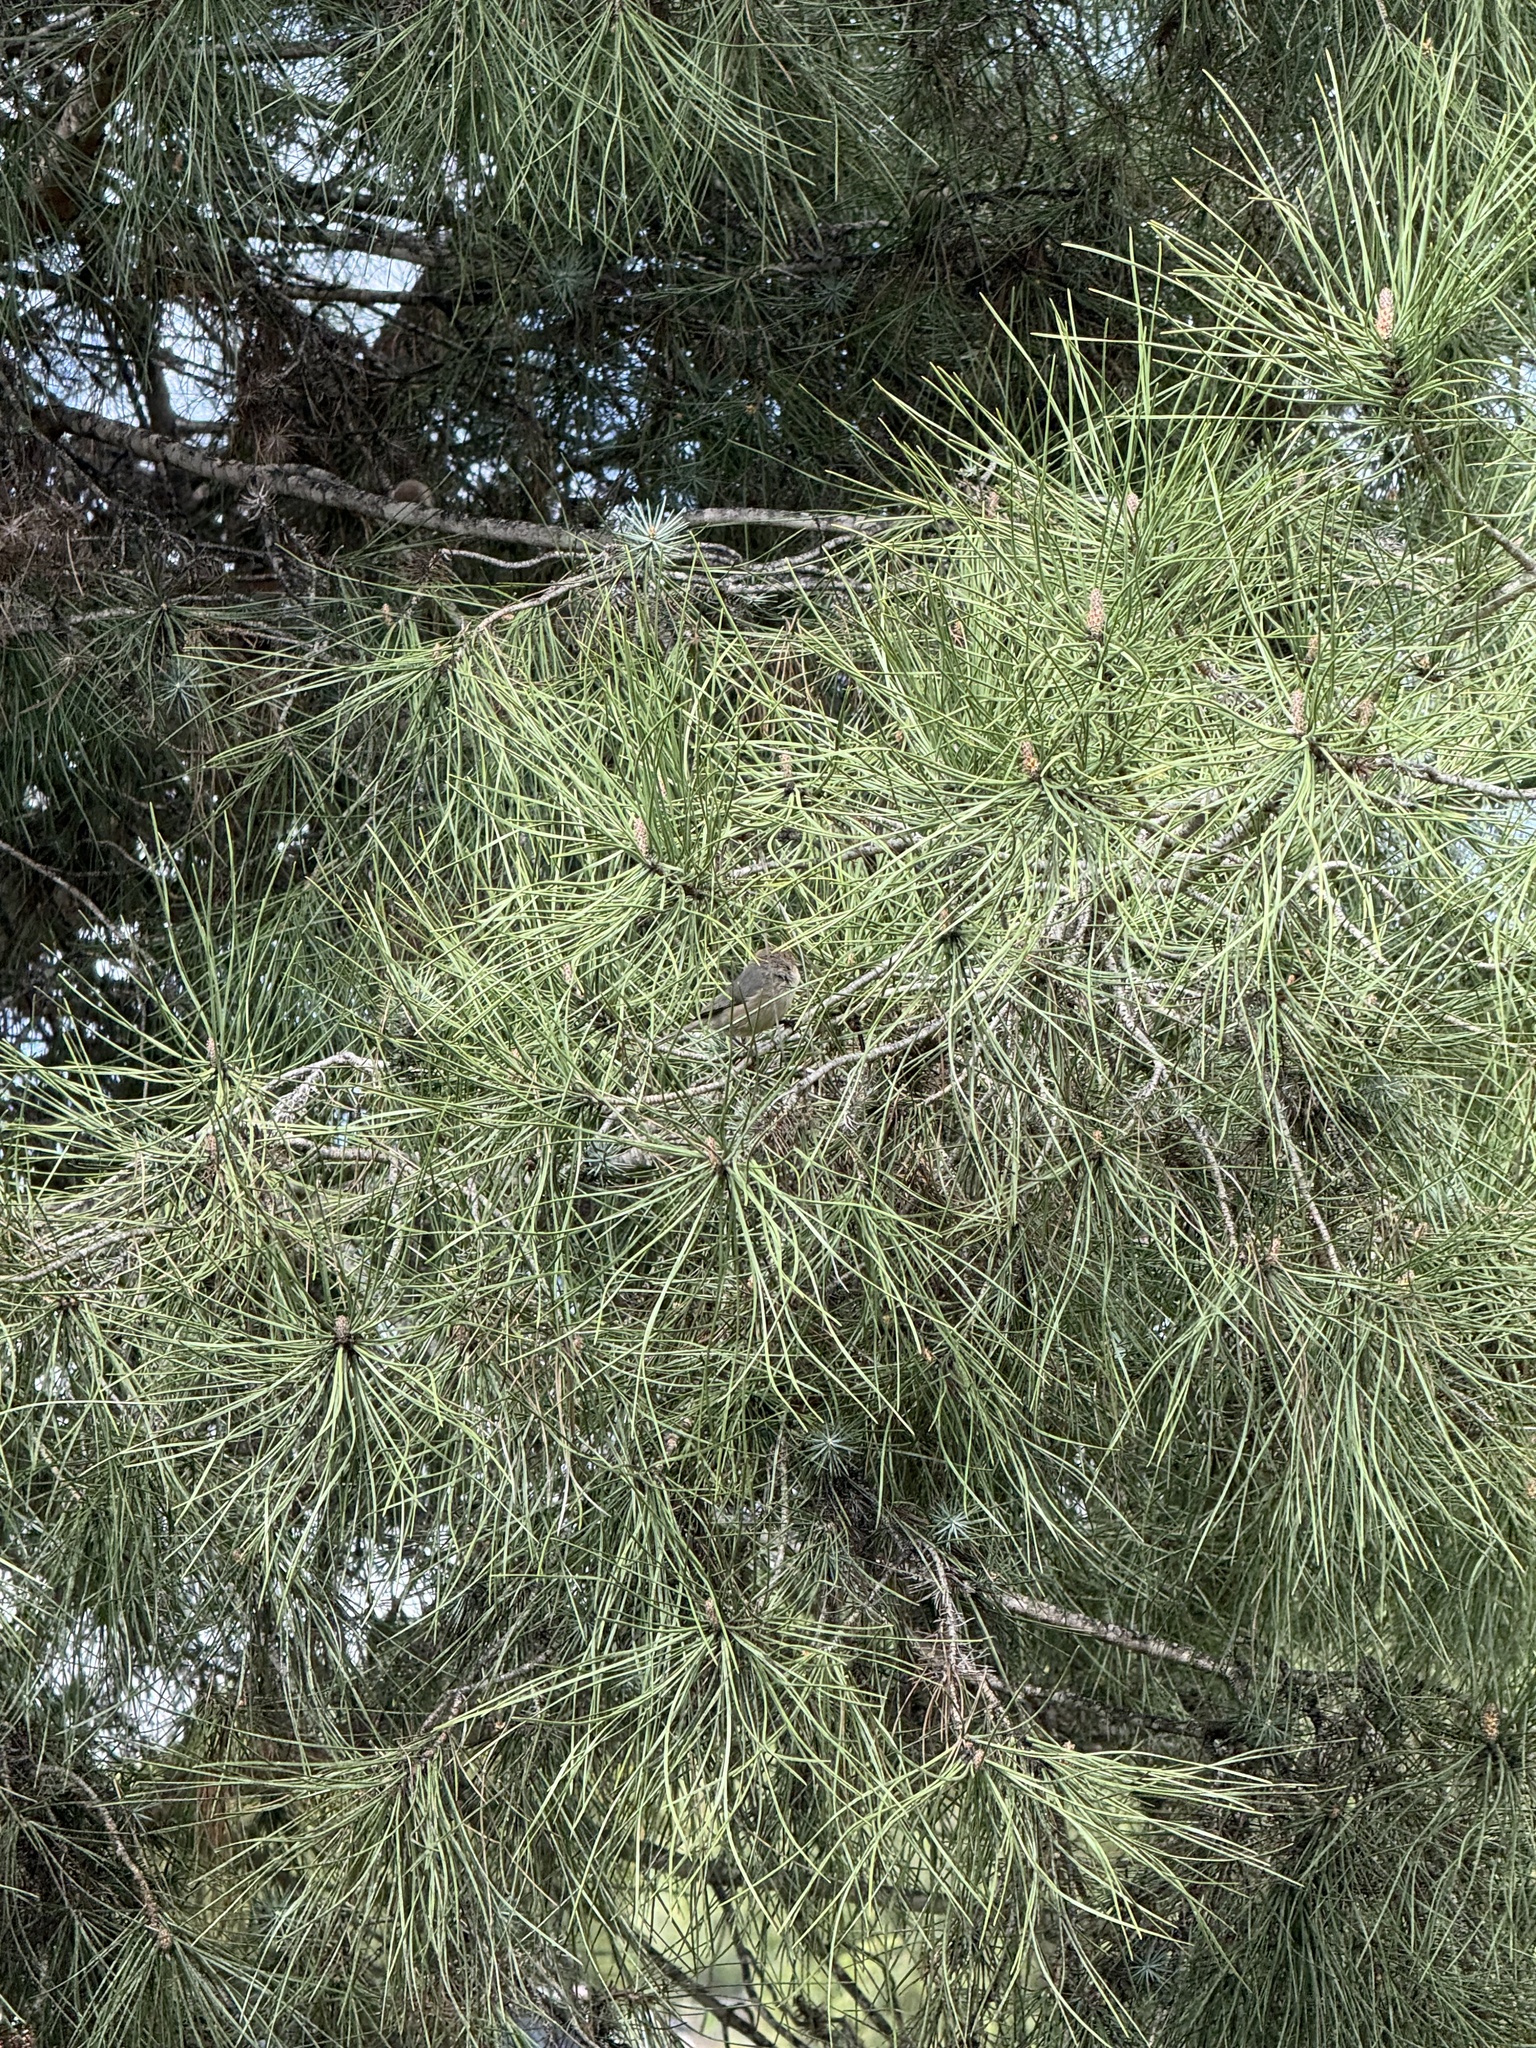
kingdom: Animalia
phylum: Chordata
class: Aves
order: Passeriformes
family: Aegithalidae
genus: Psaltriparus
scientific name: Psaltriparus minimus
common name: American bushtit
